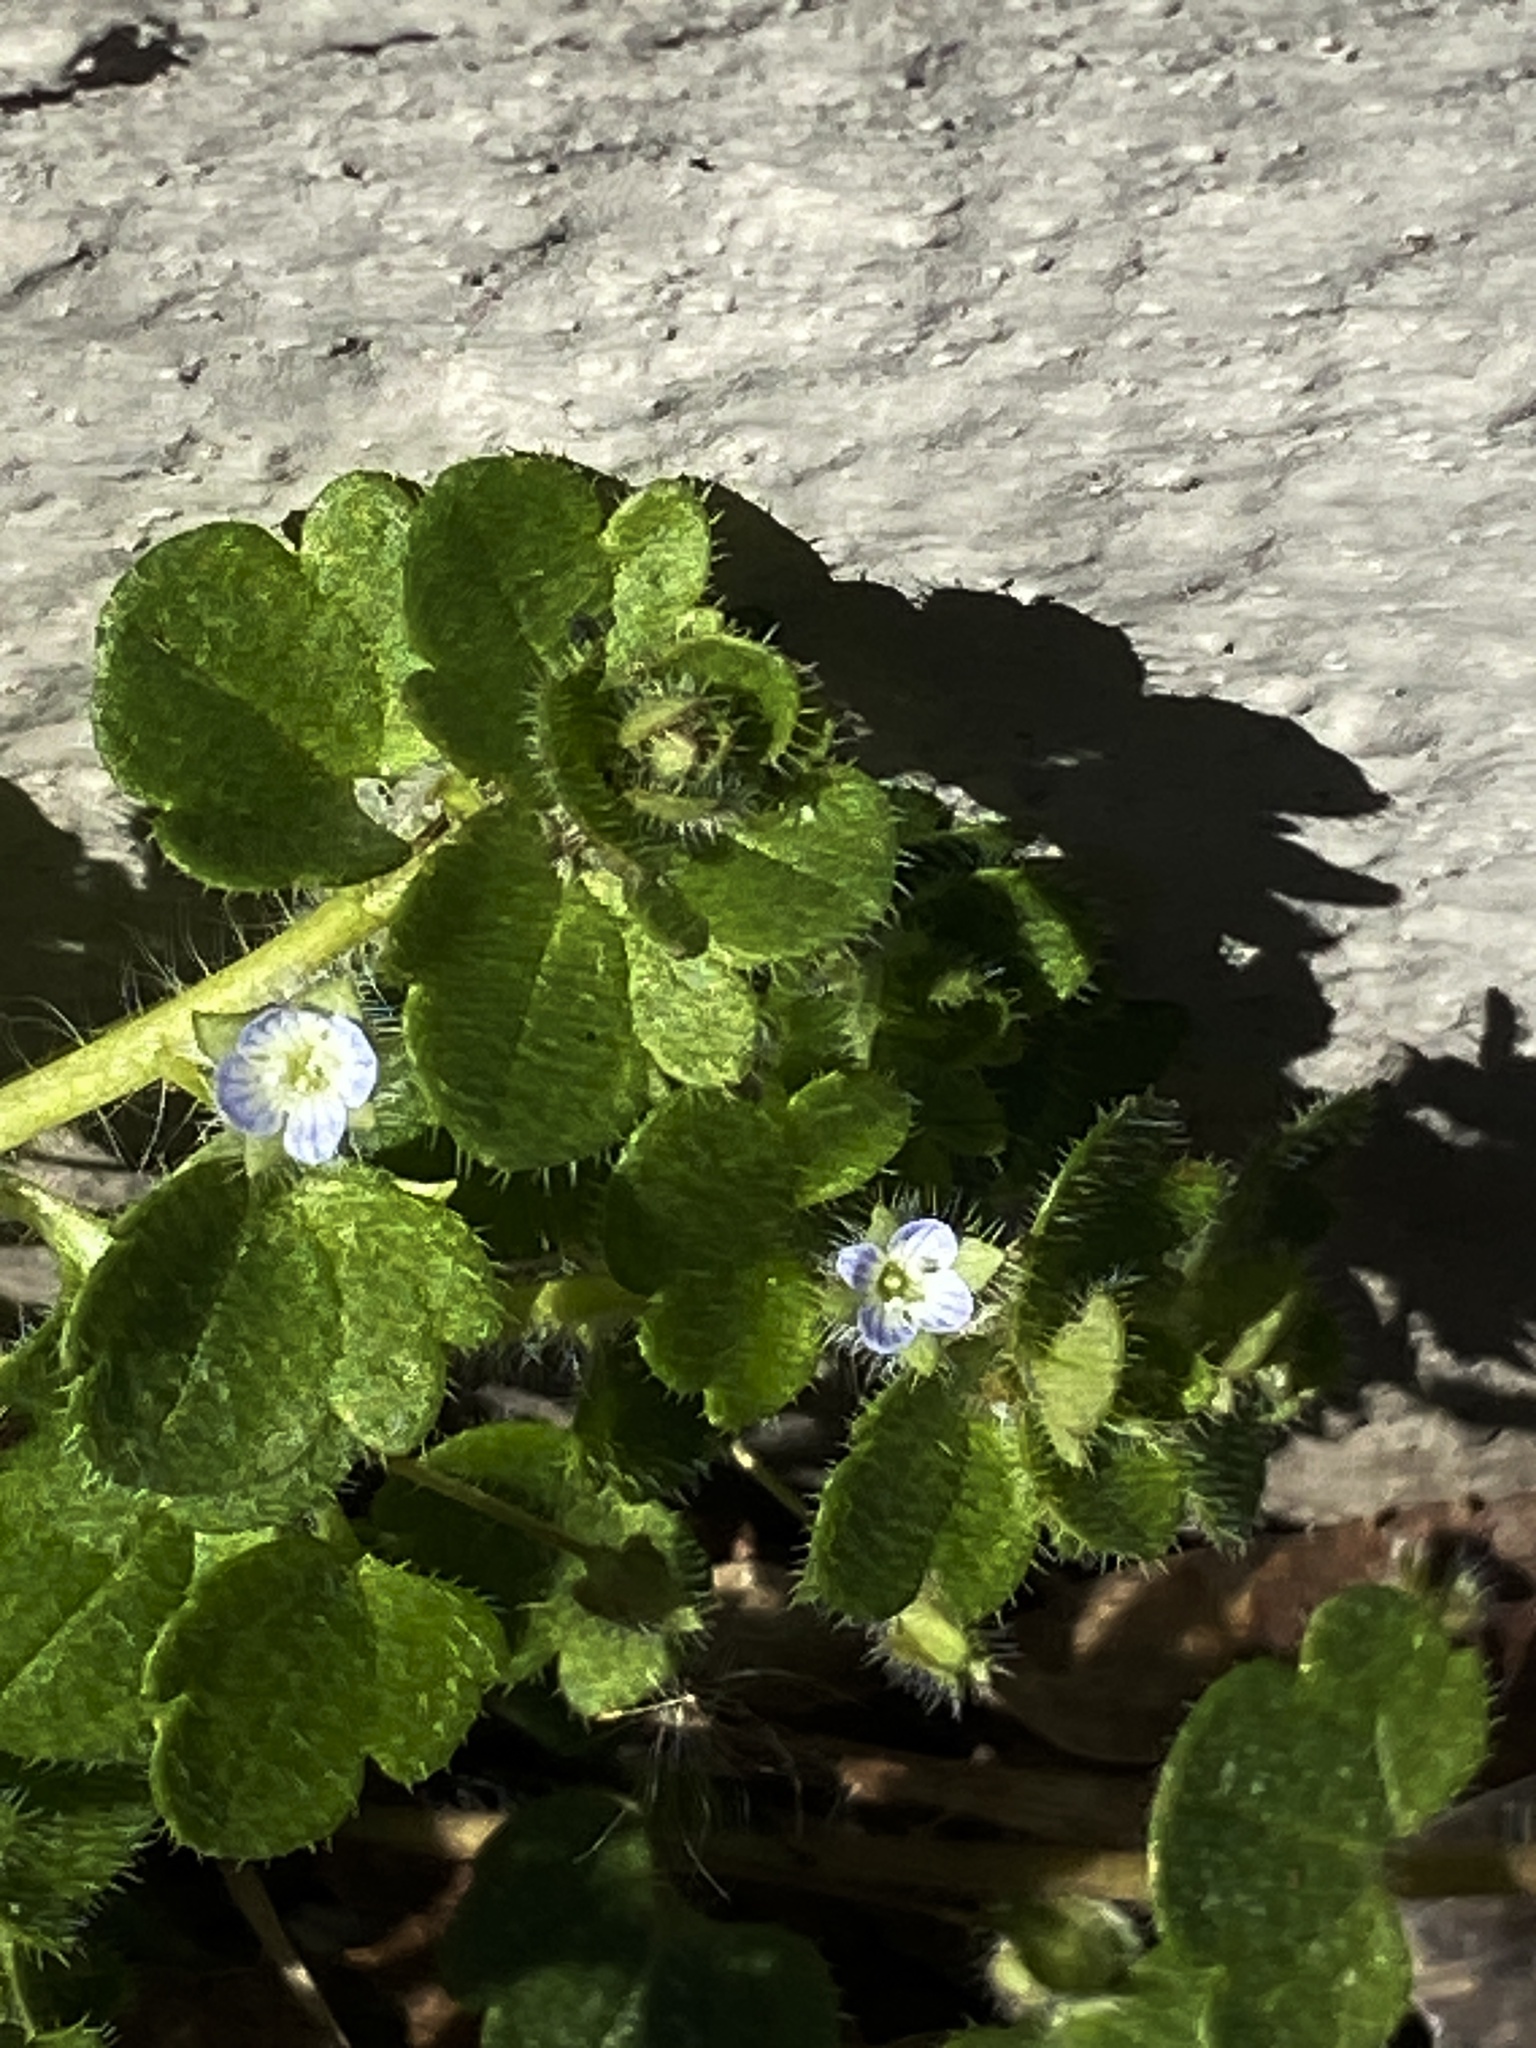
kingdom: Plantae
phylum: Tracheophyta
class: Magnoliopsida
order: Lamiales
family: Plantaginaceae
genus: Veronica
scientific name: Veronica hederifolia
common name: Ivy-leaved speedwell
